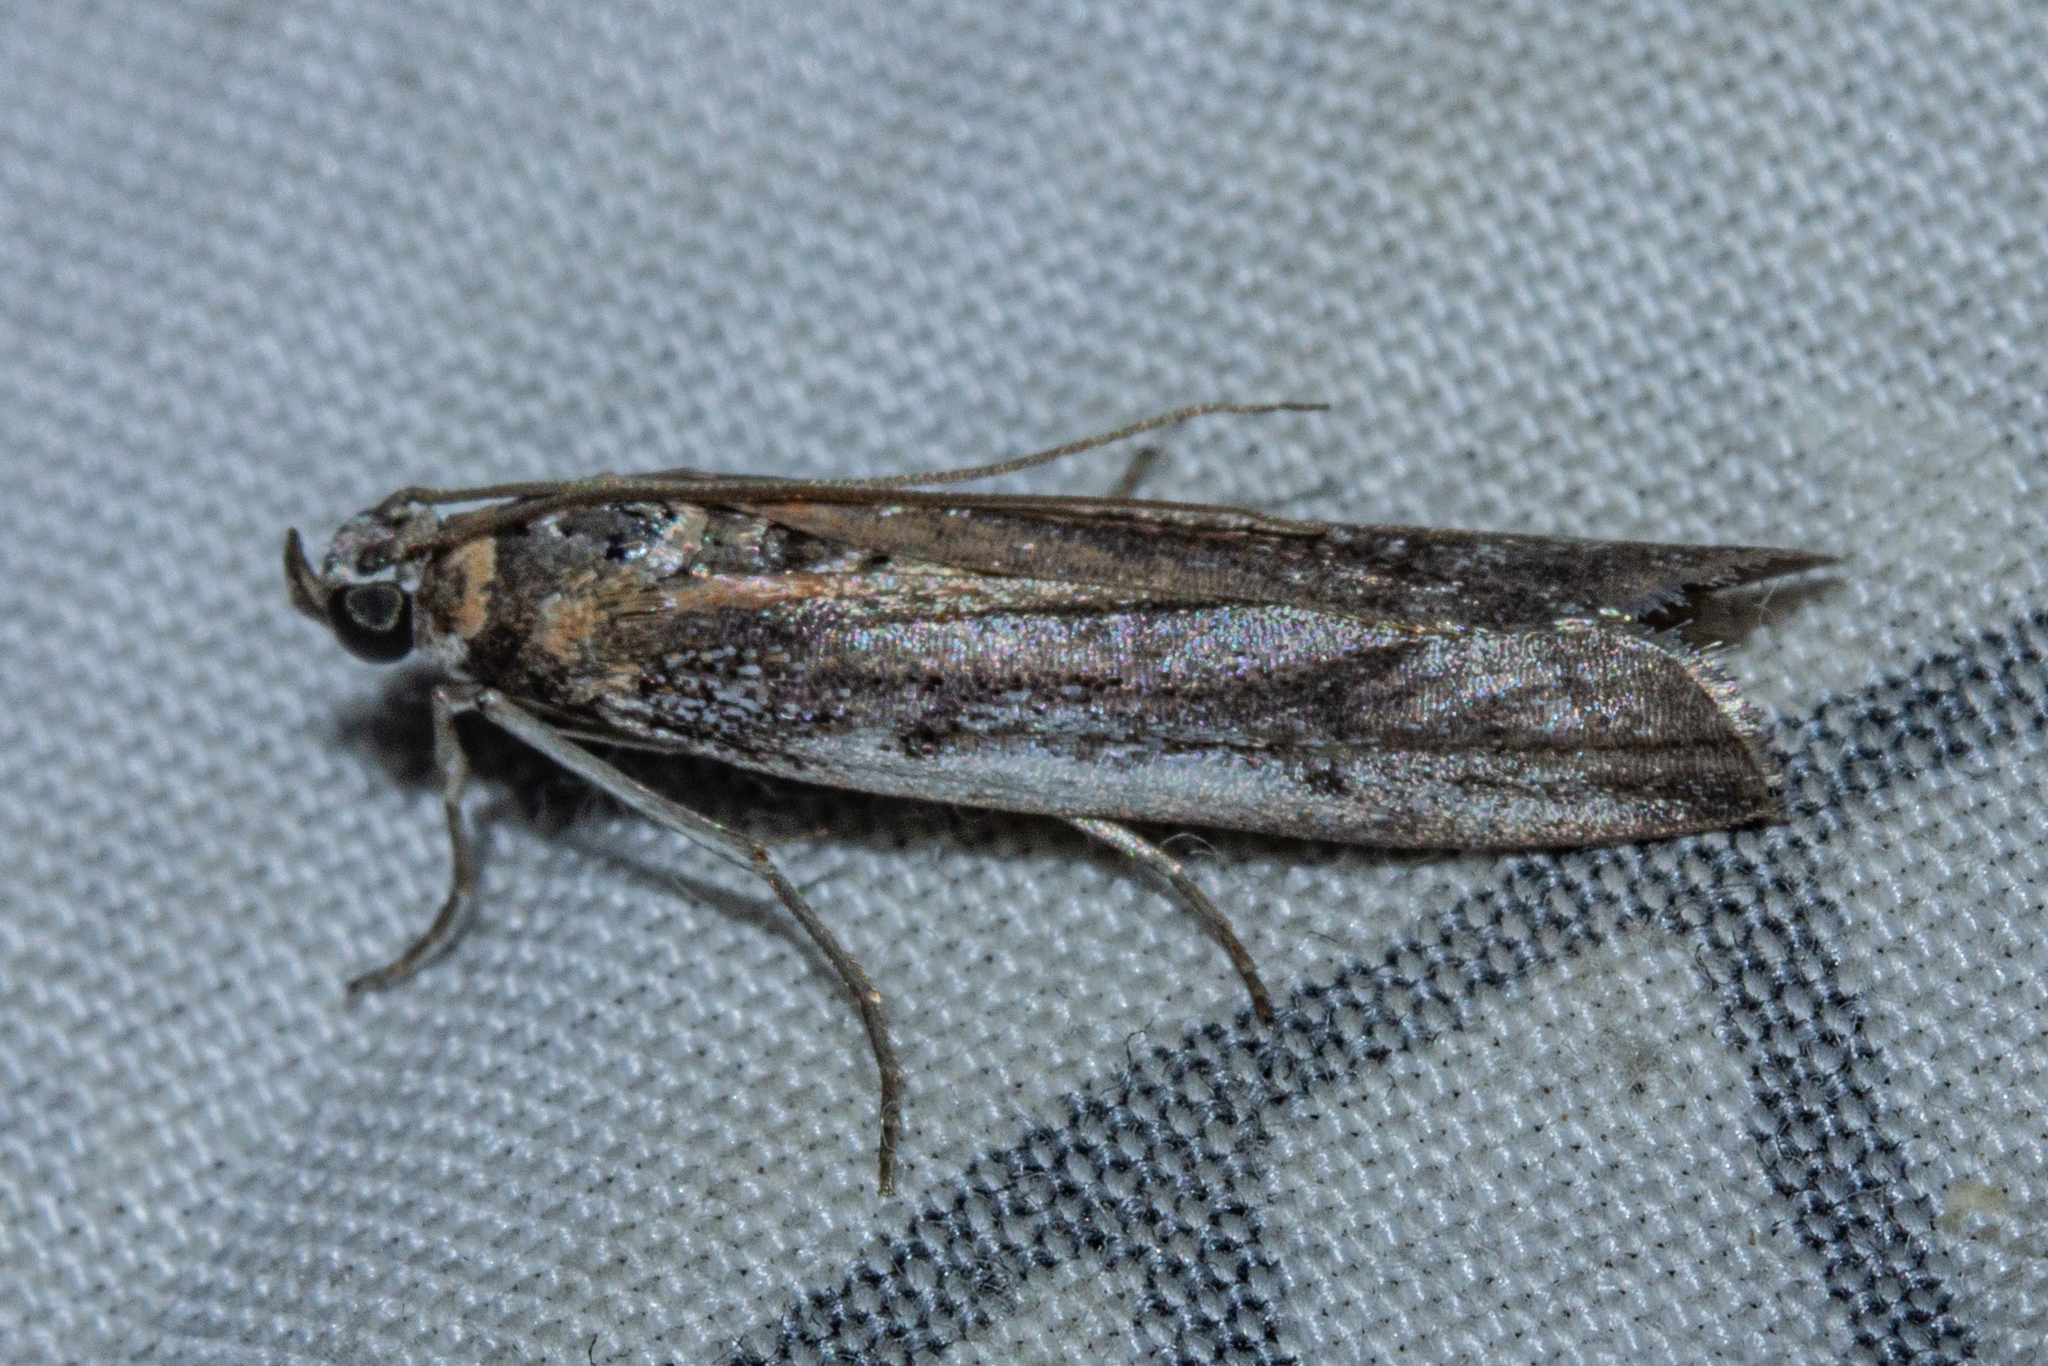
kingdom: Animalia
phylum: Arthropoda
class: Insecta
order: Lepidoptera
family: Pyralidae
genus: Patagoniodes
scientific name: Patagoniodes farinaria
